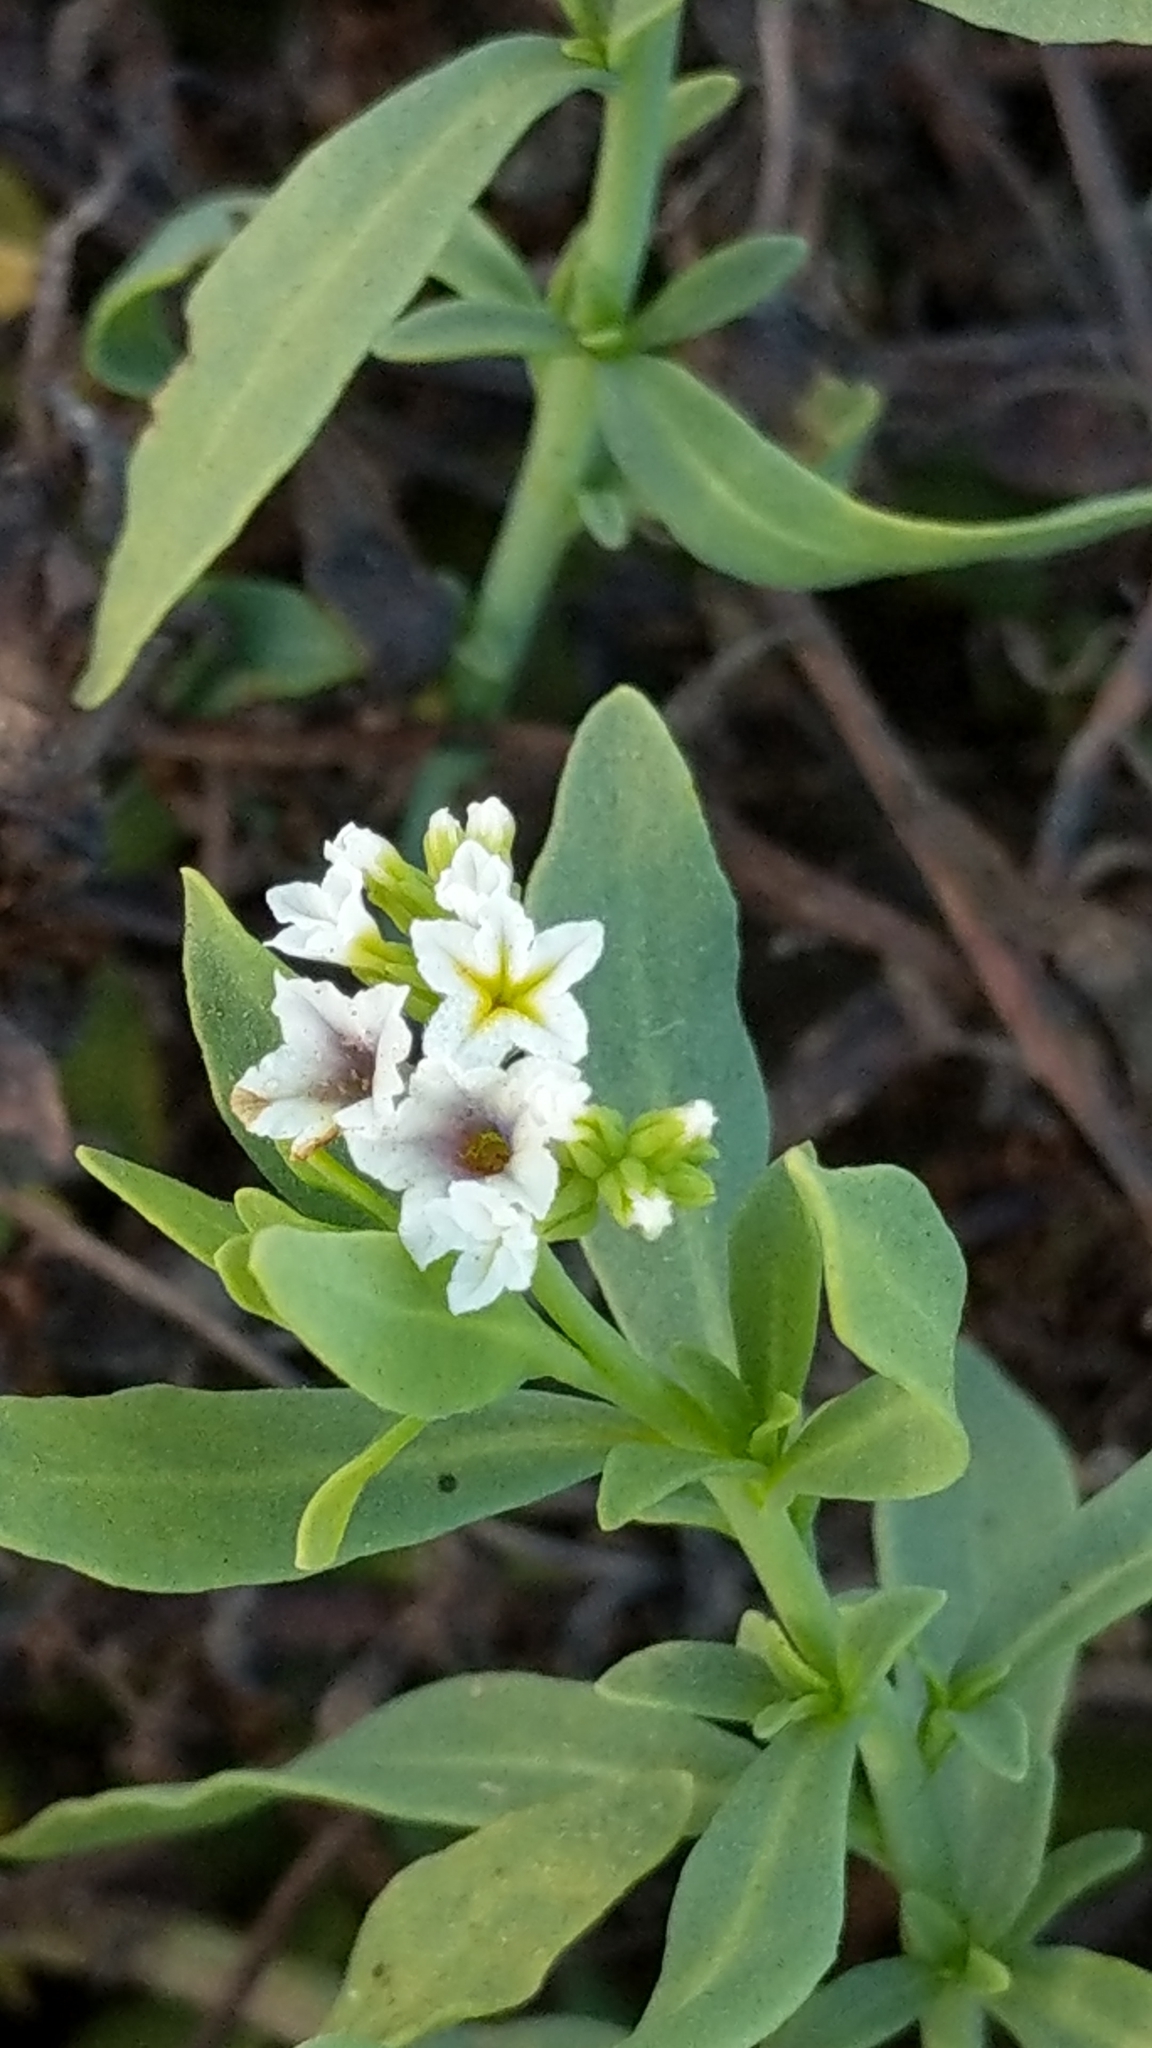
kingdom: Plantae
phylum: Tracheophyta
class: Magnoliopsida
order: Boraginales
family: Heliotropiaceae
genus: Heliotropium
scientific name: Heliotropium curassavicum
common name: Seaside heliotrope
